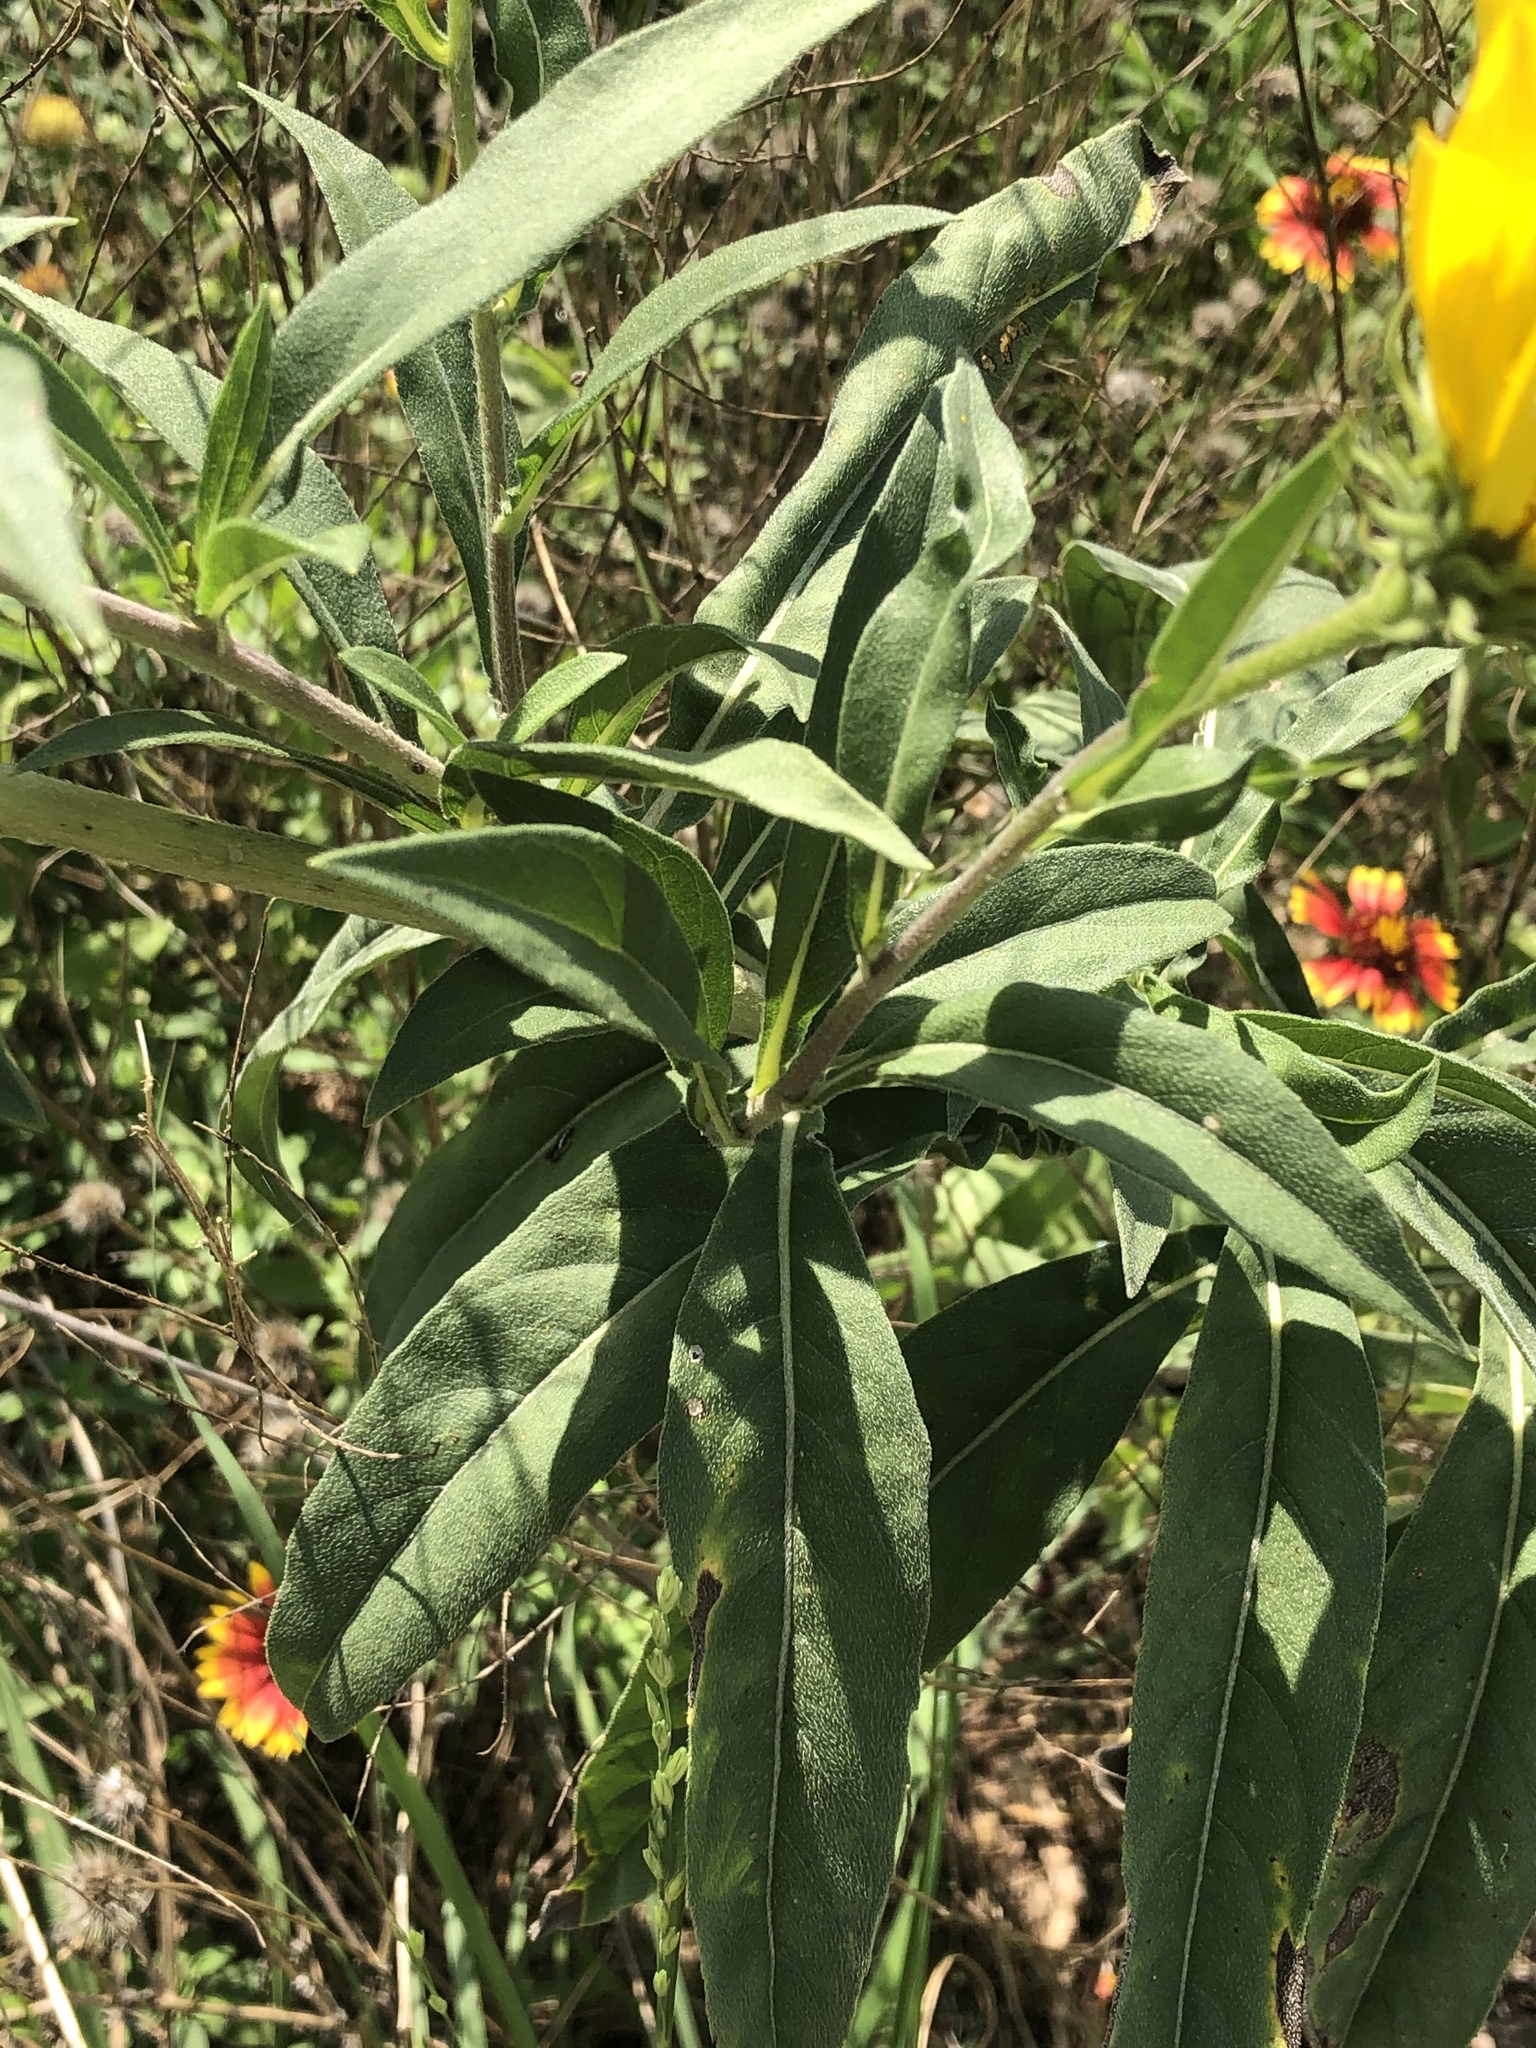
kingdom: Plantae
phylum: Tracheophyta
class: Magnoliopsida
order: Asterales
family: Asteraceae
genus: Helianthus
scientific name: Helianthus maximiliani
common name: Maximilian's sunflower
